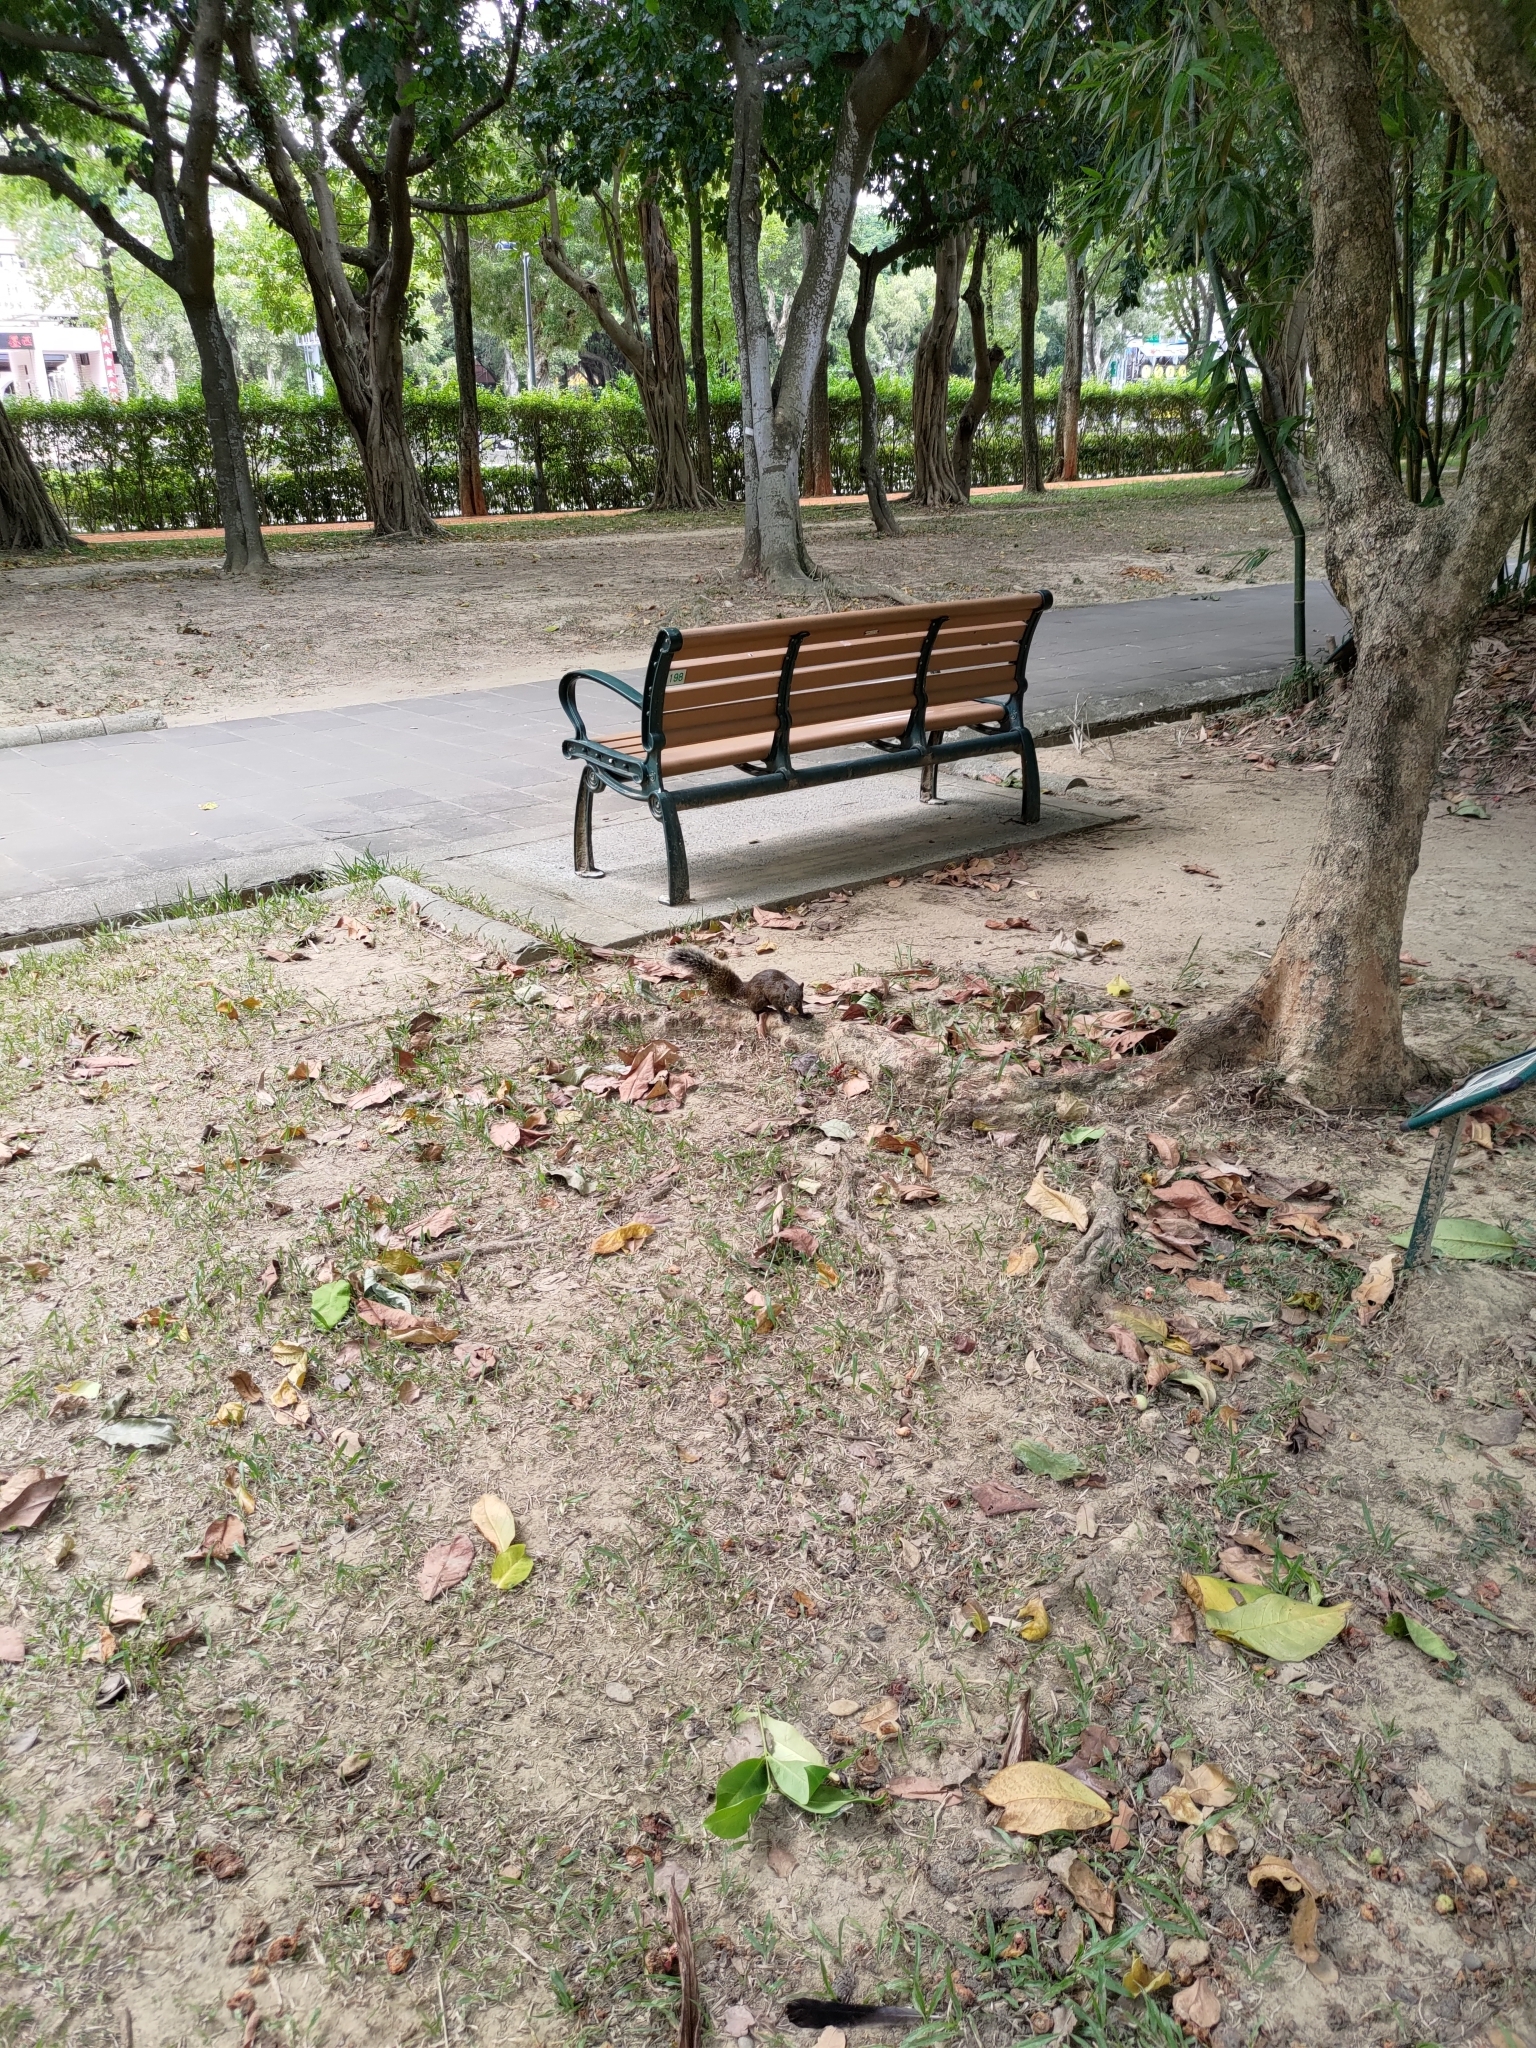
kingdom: Animalia
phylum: Chordata
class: Mammalia
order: Rodentia
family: Sciuridae
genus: Callosciurus
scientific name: Callosciurus erythraeus
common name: Pallas's squirrel
